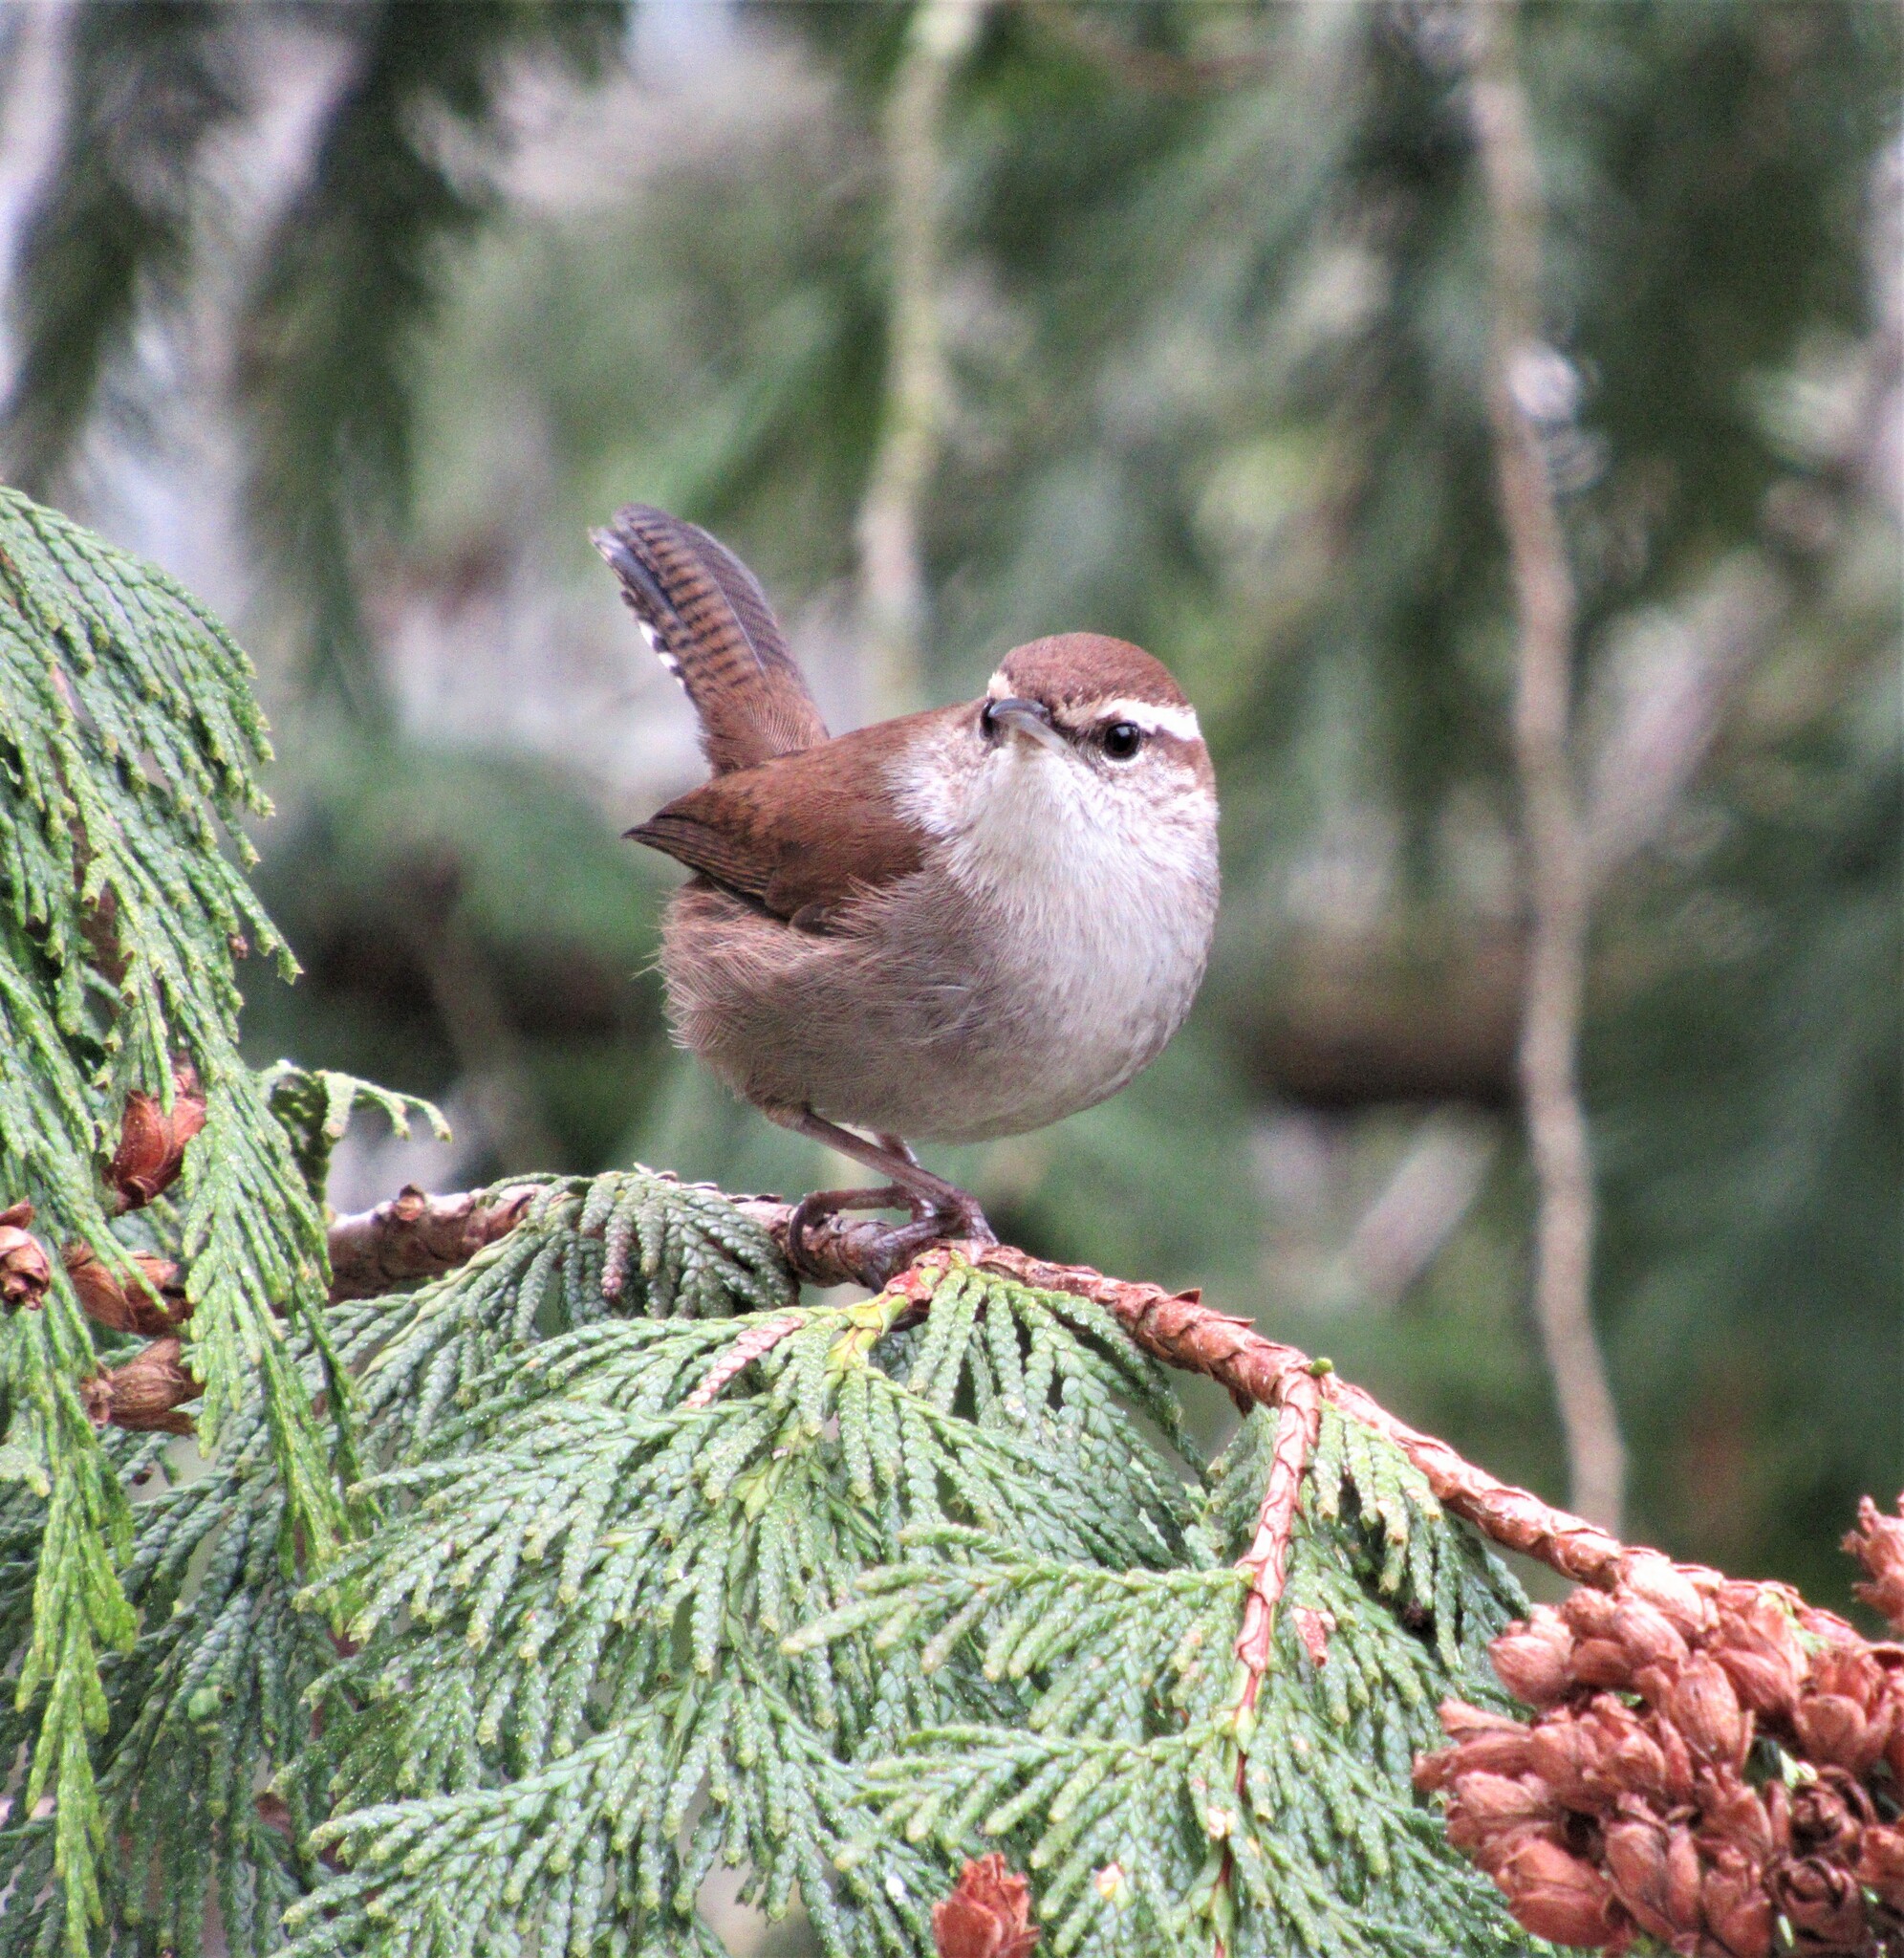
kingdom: Animalia
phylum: Chordata
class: Aves
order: Passeriformes
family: Troglodytidae
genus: Thryomanes
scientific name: Thryomanes bewickii
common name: Bewick's wren
